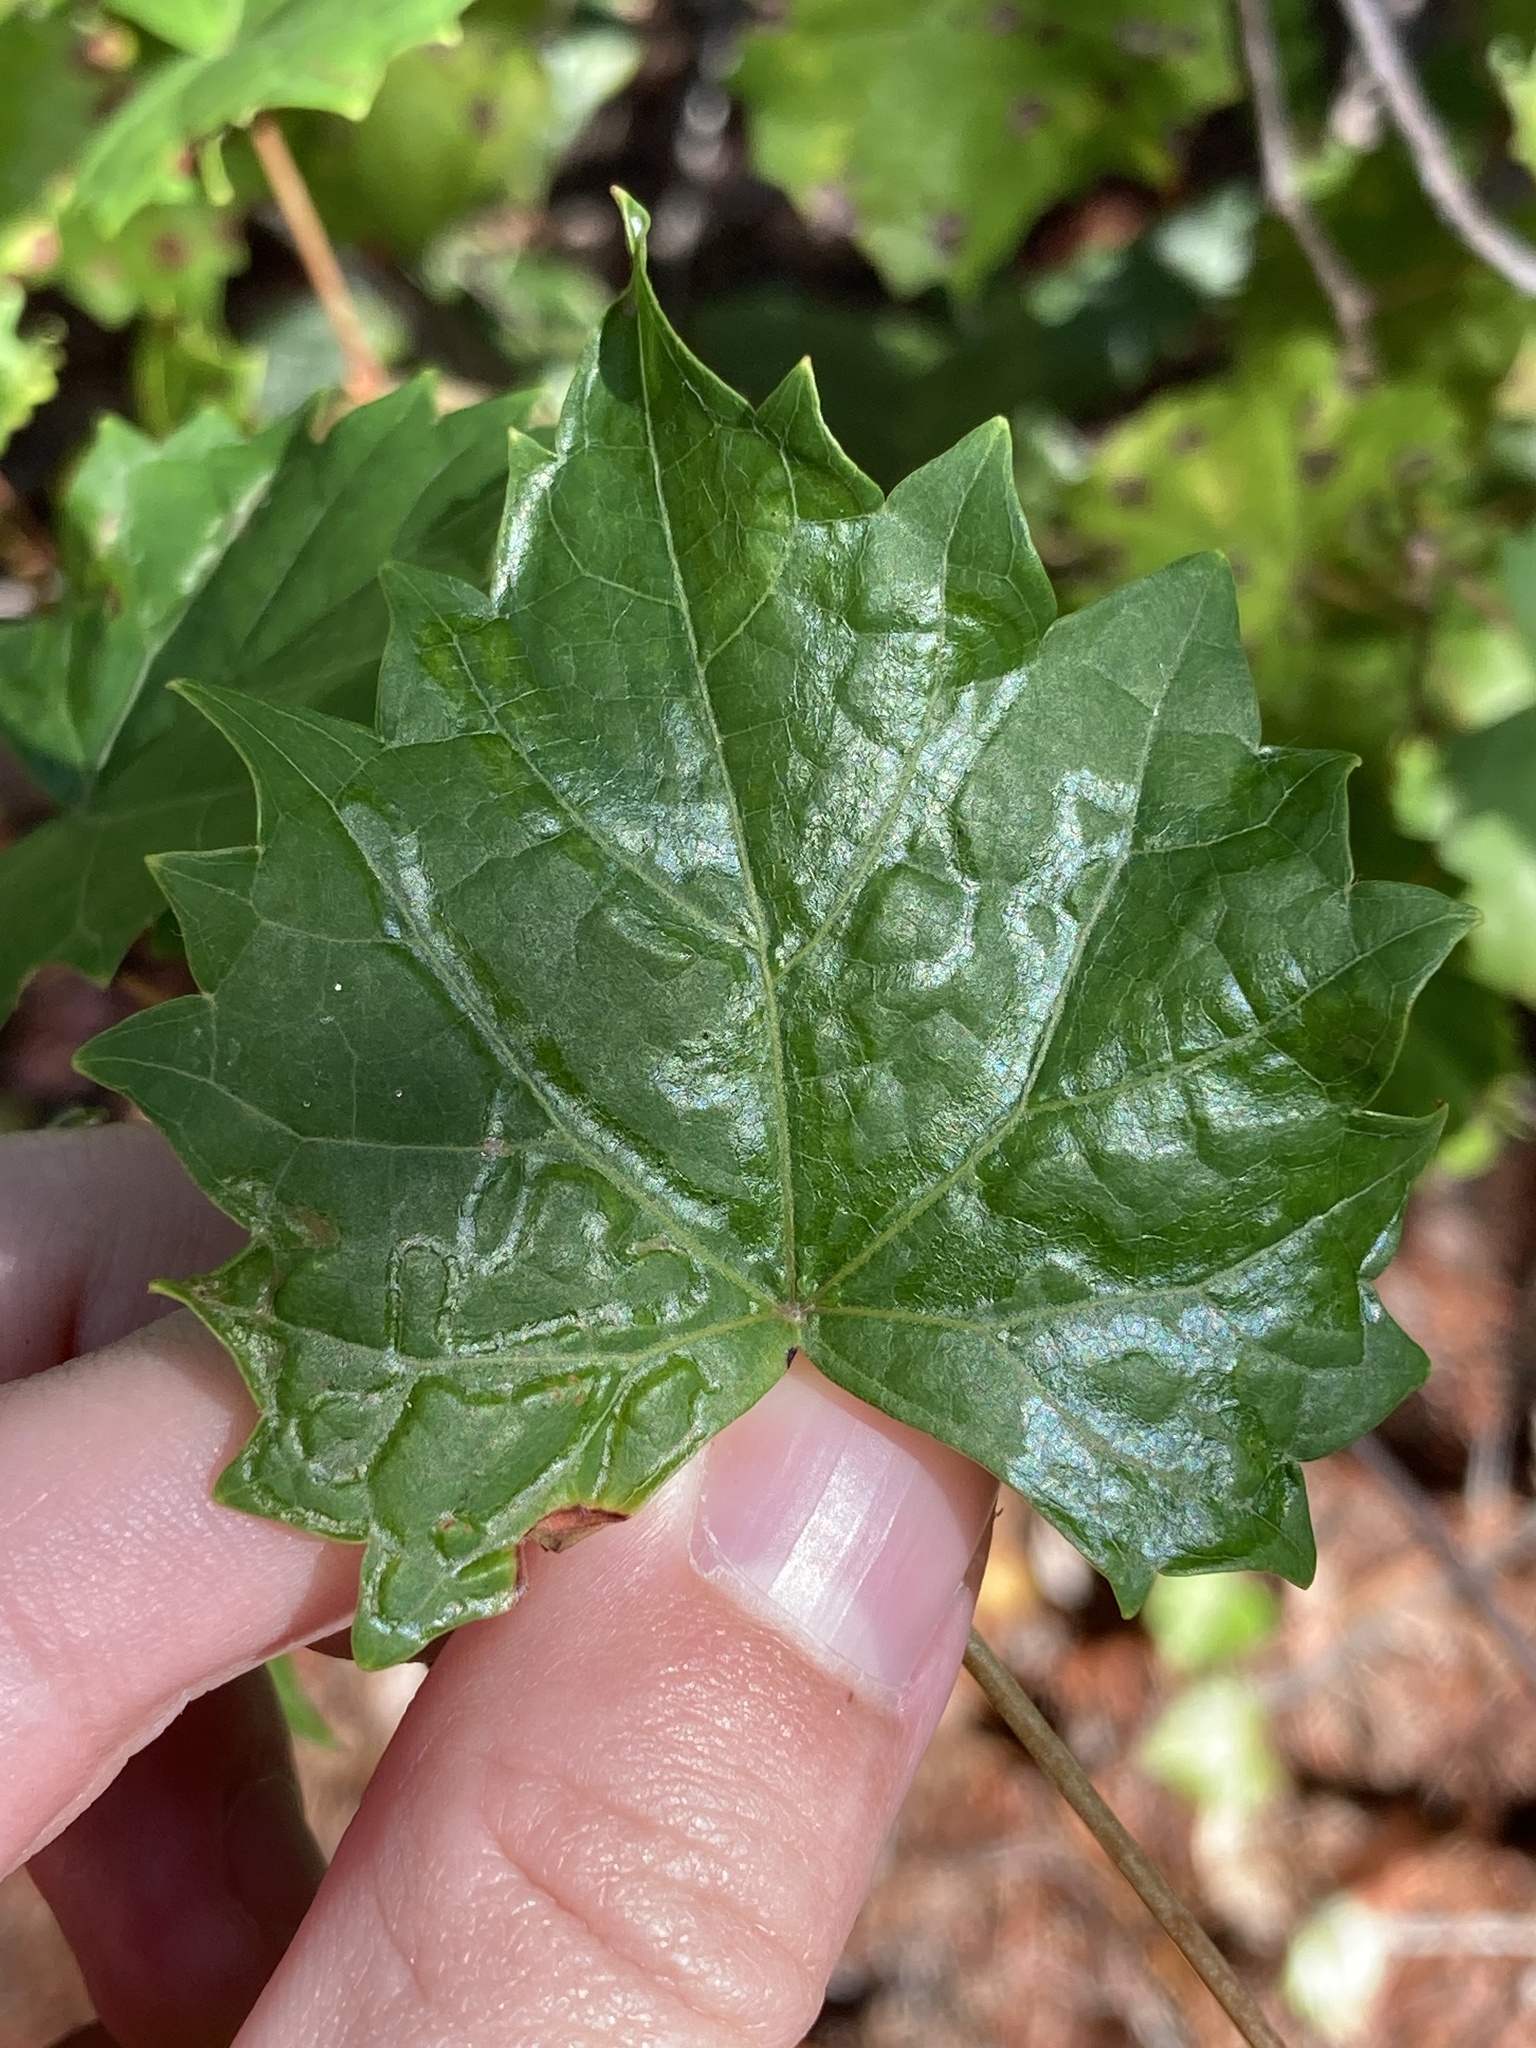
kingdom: Animalia
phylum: Arthropoda
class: Insecta
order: Lepidoptera
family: Gracillariidae
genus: Phyllocnistis
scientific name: Phyllocnistis vitegenella
